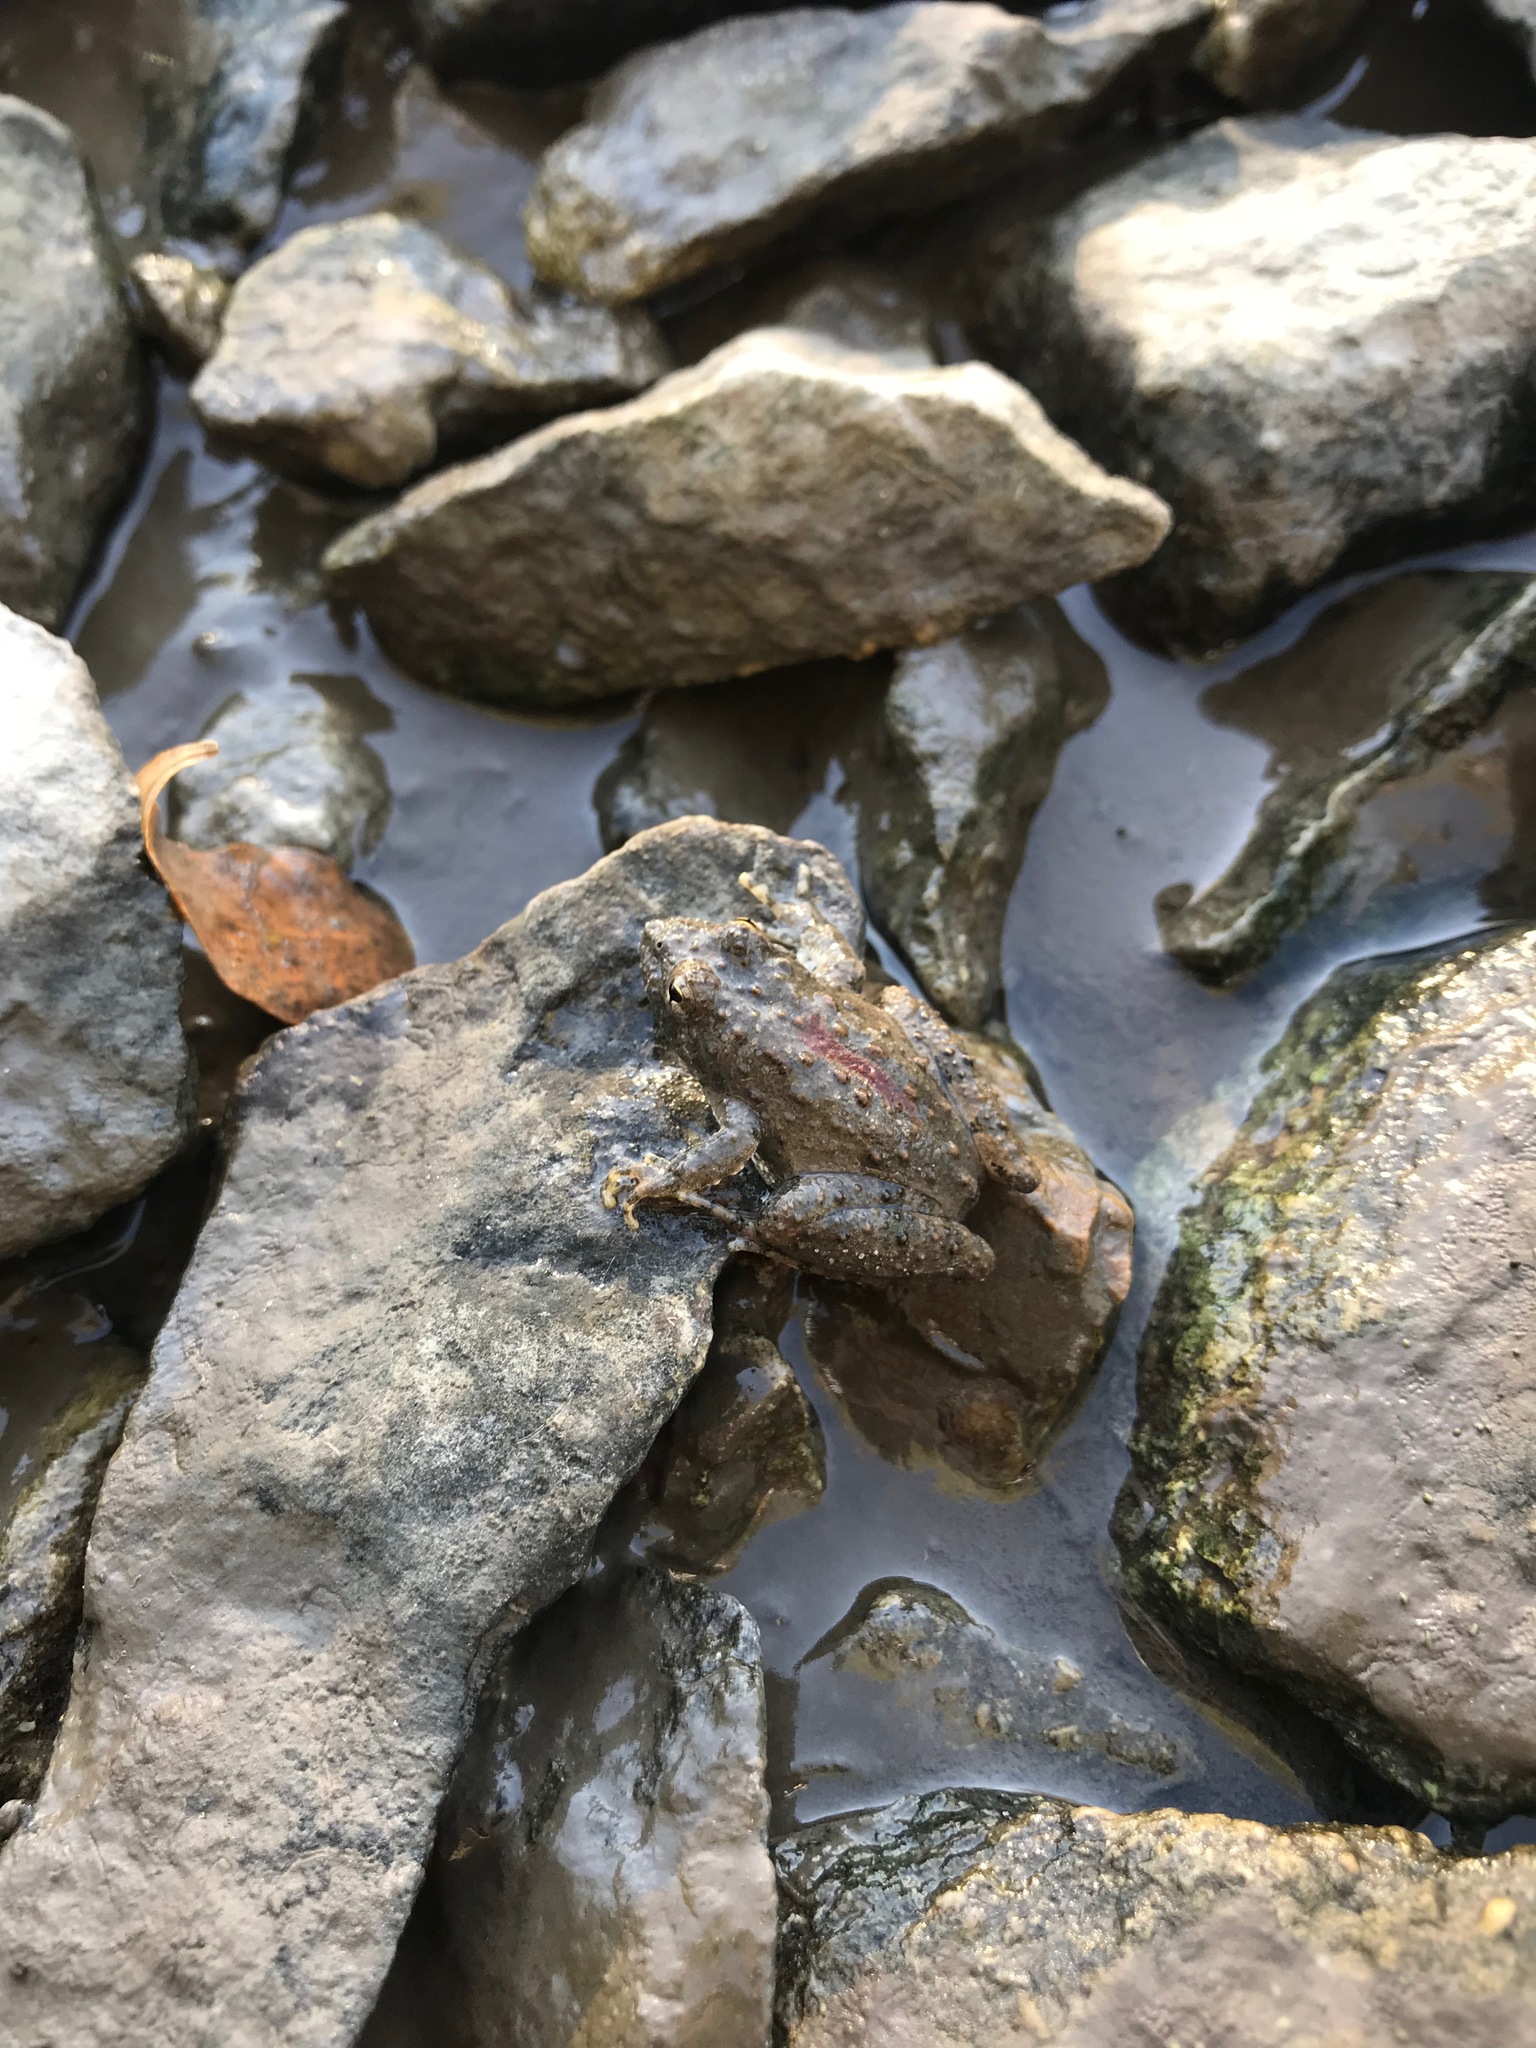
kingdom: Animalia
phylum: Chordata
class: Amphibia
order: Anura
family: Hylidae
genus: Acris
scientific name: Acris blanchardi
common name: Blanchard's cricket frog
